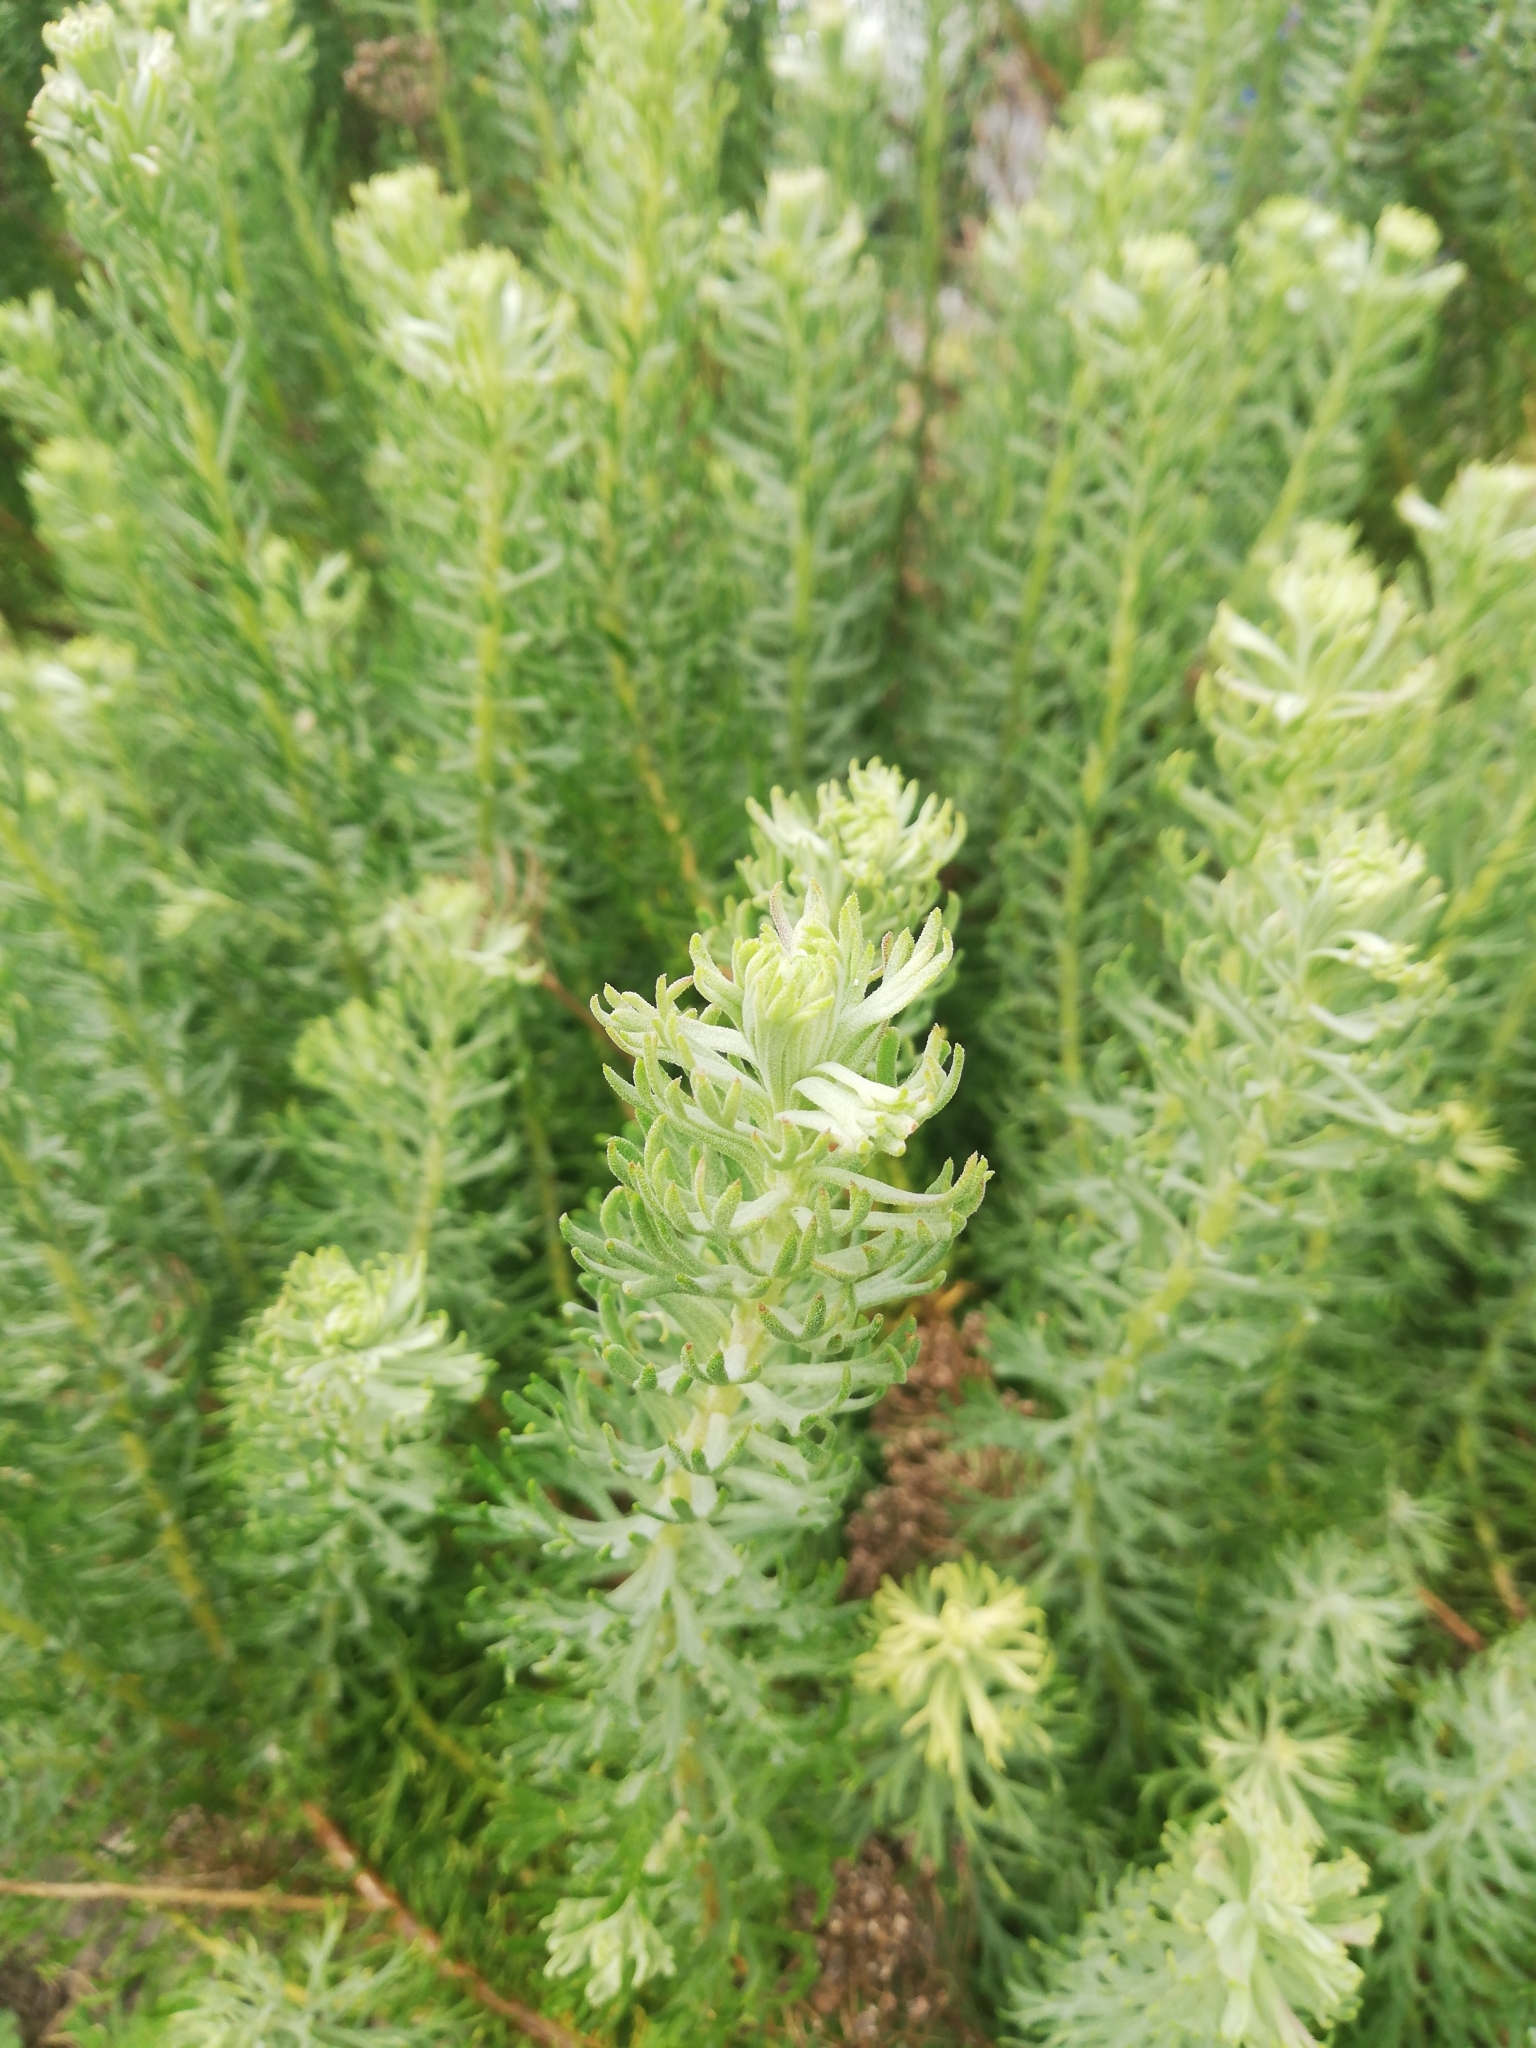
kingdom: Plantae
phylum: Tracheophyta
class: Magnoliopsida
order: Asterales
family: Asteraceae
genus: Athanasia
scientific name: Athanasia crithmifolia
